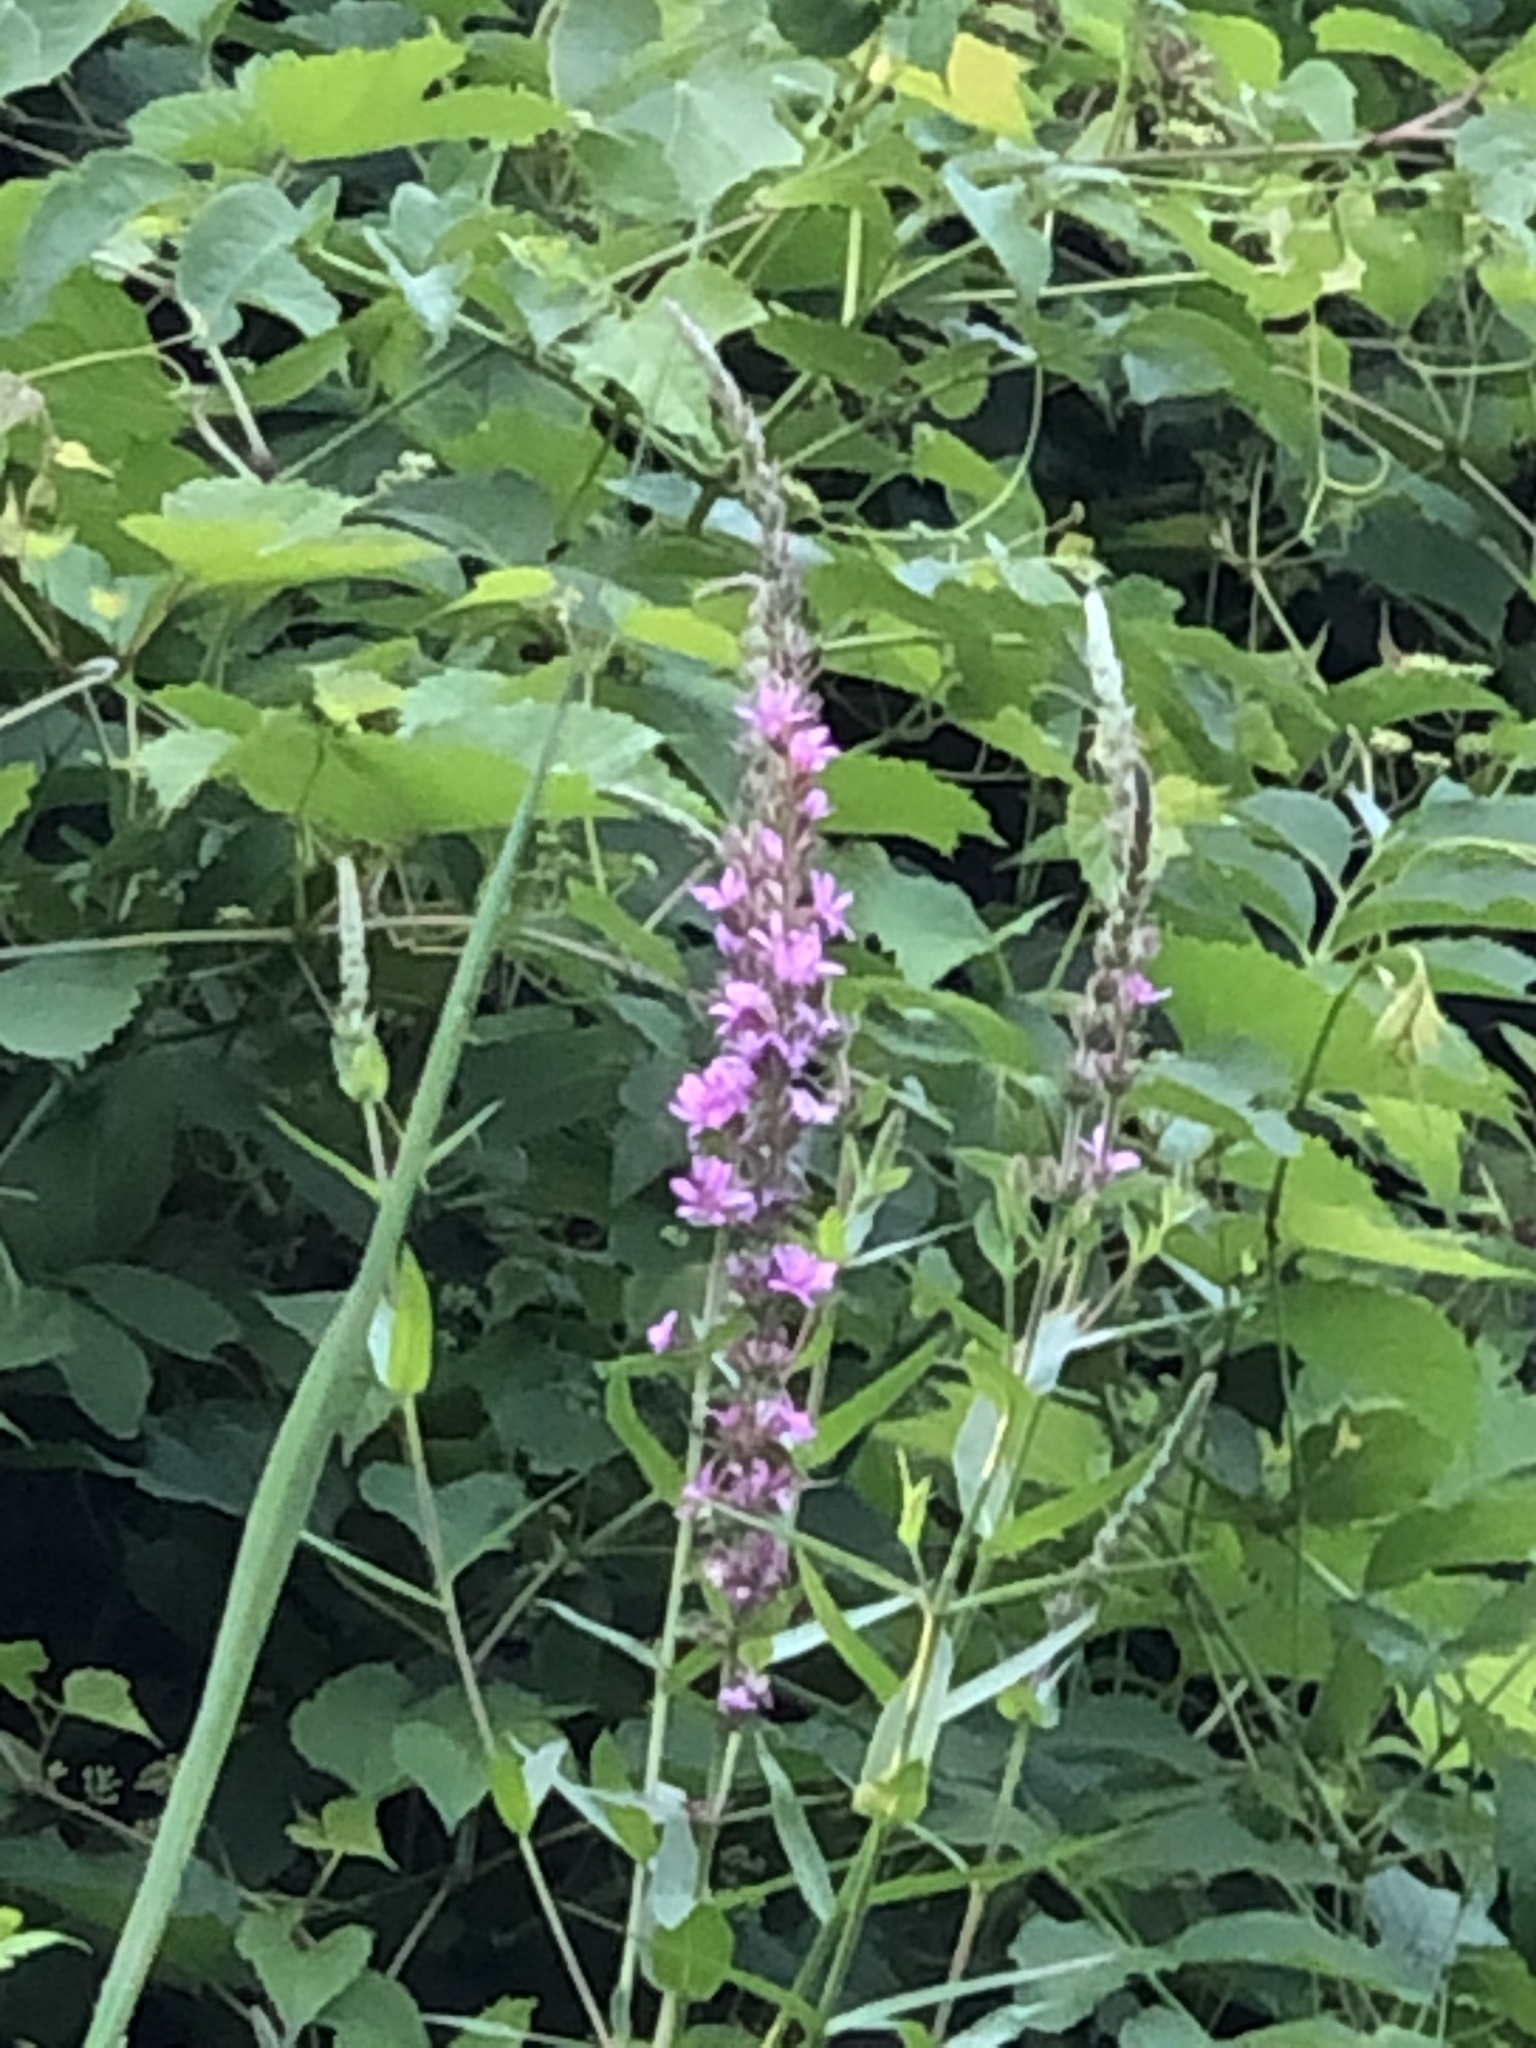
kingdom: Plantae
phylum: Tracheophyta
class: Magnoliopsida
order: Myrtales
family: Lythraceae
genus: Lythrum
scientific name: Lythrum salicaria
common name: Purple loosestrife
